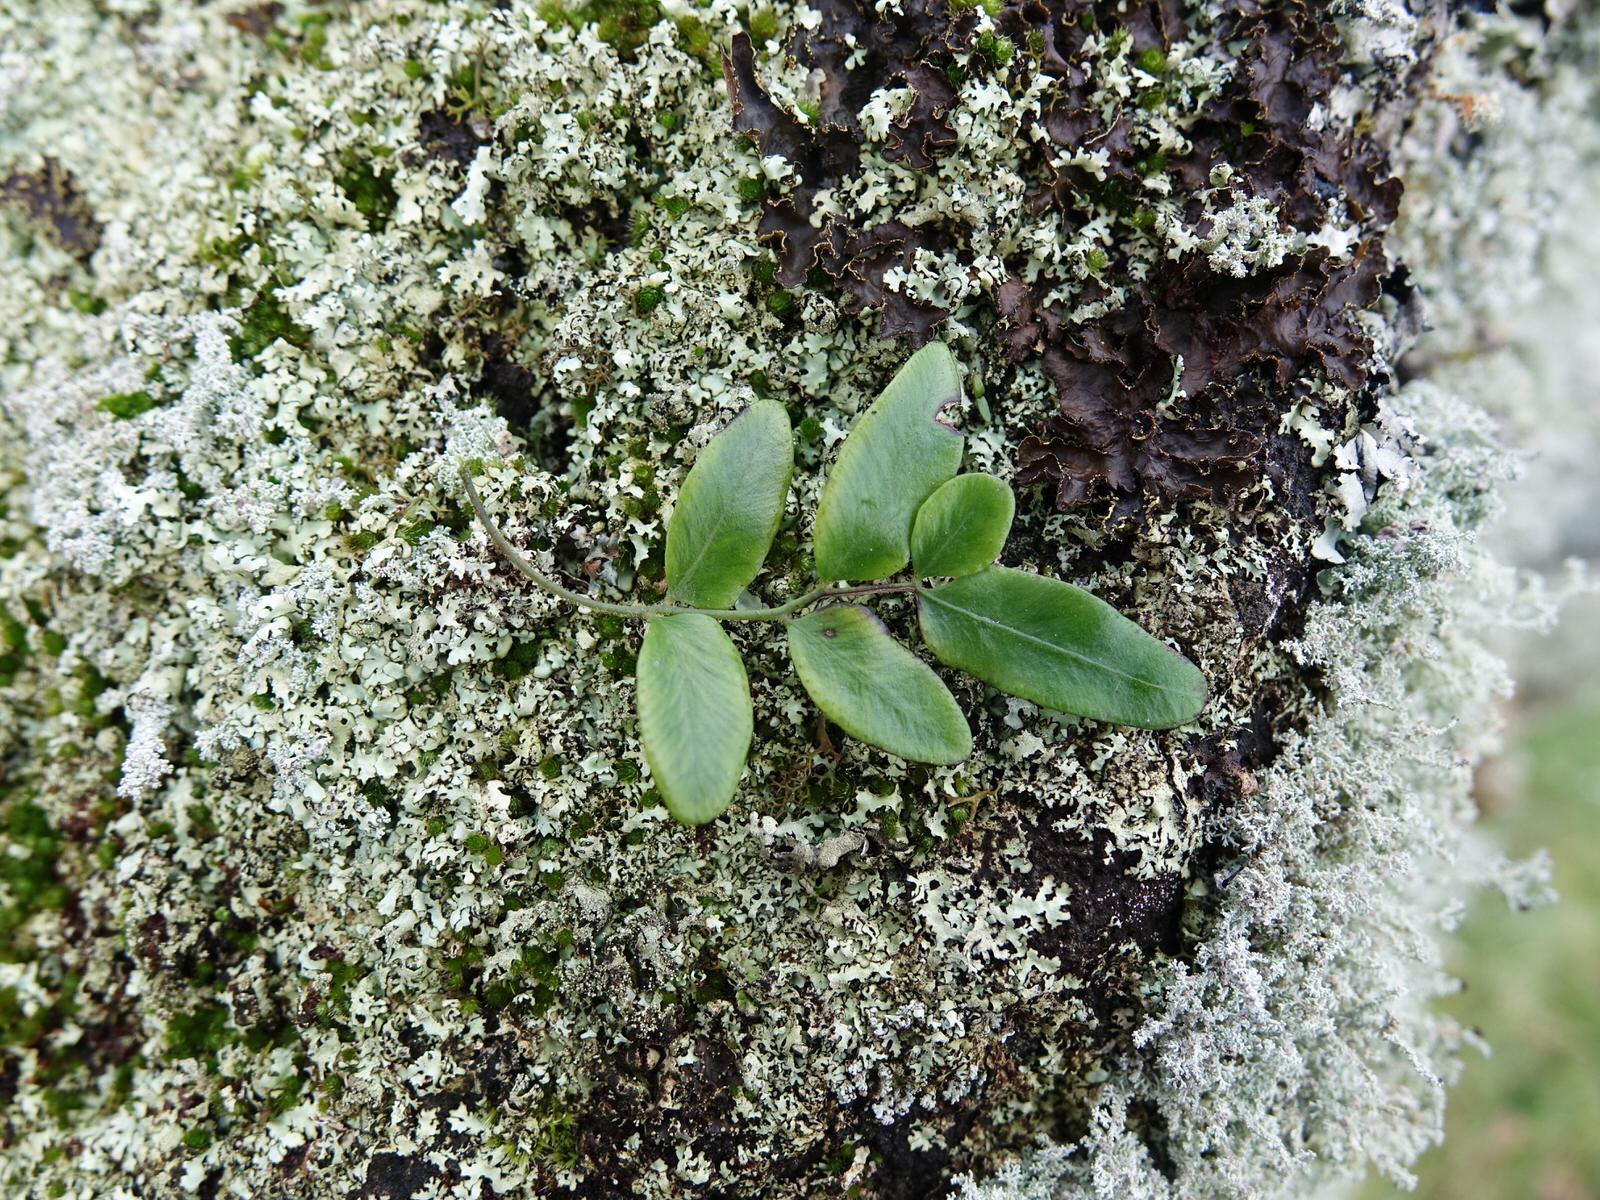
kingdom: Plantae
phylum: Tracheophyta
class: Polypodiopsida
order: Polypodiales
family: Tectariaceae
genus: Arthropteris
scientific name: Arthropteris tenella
